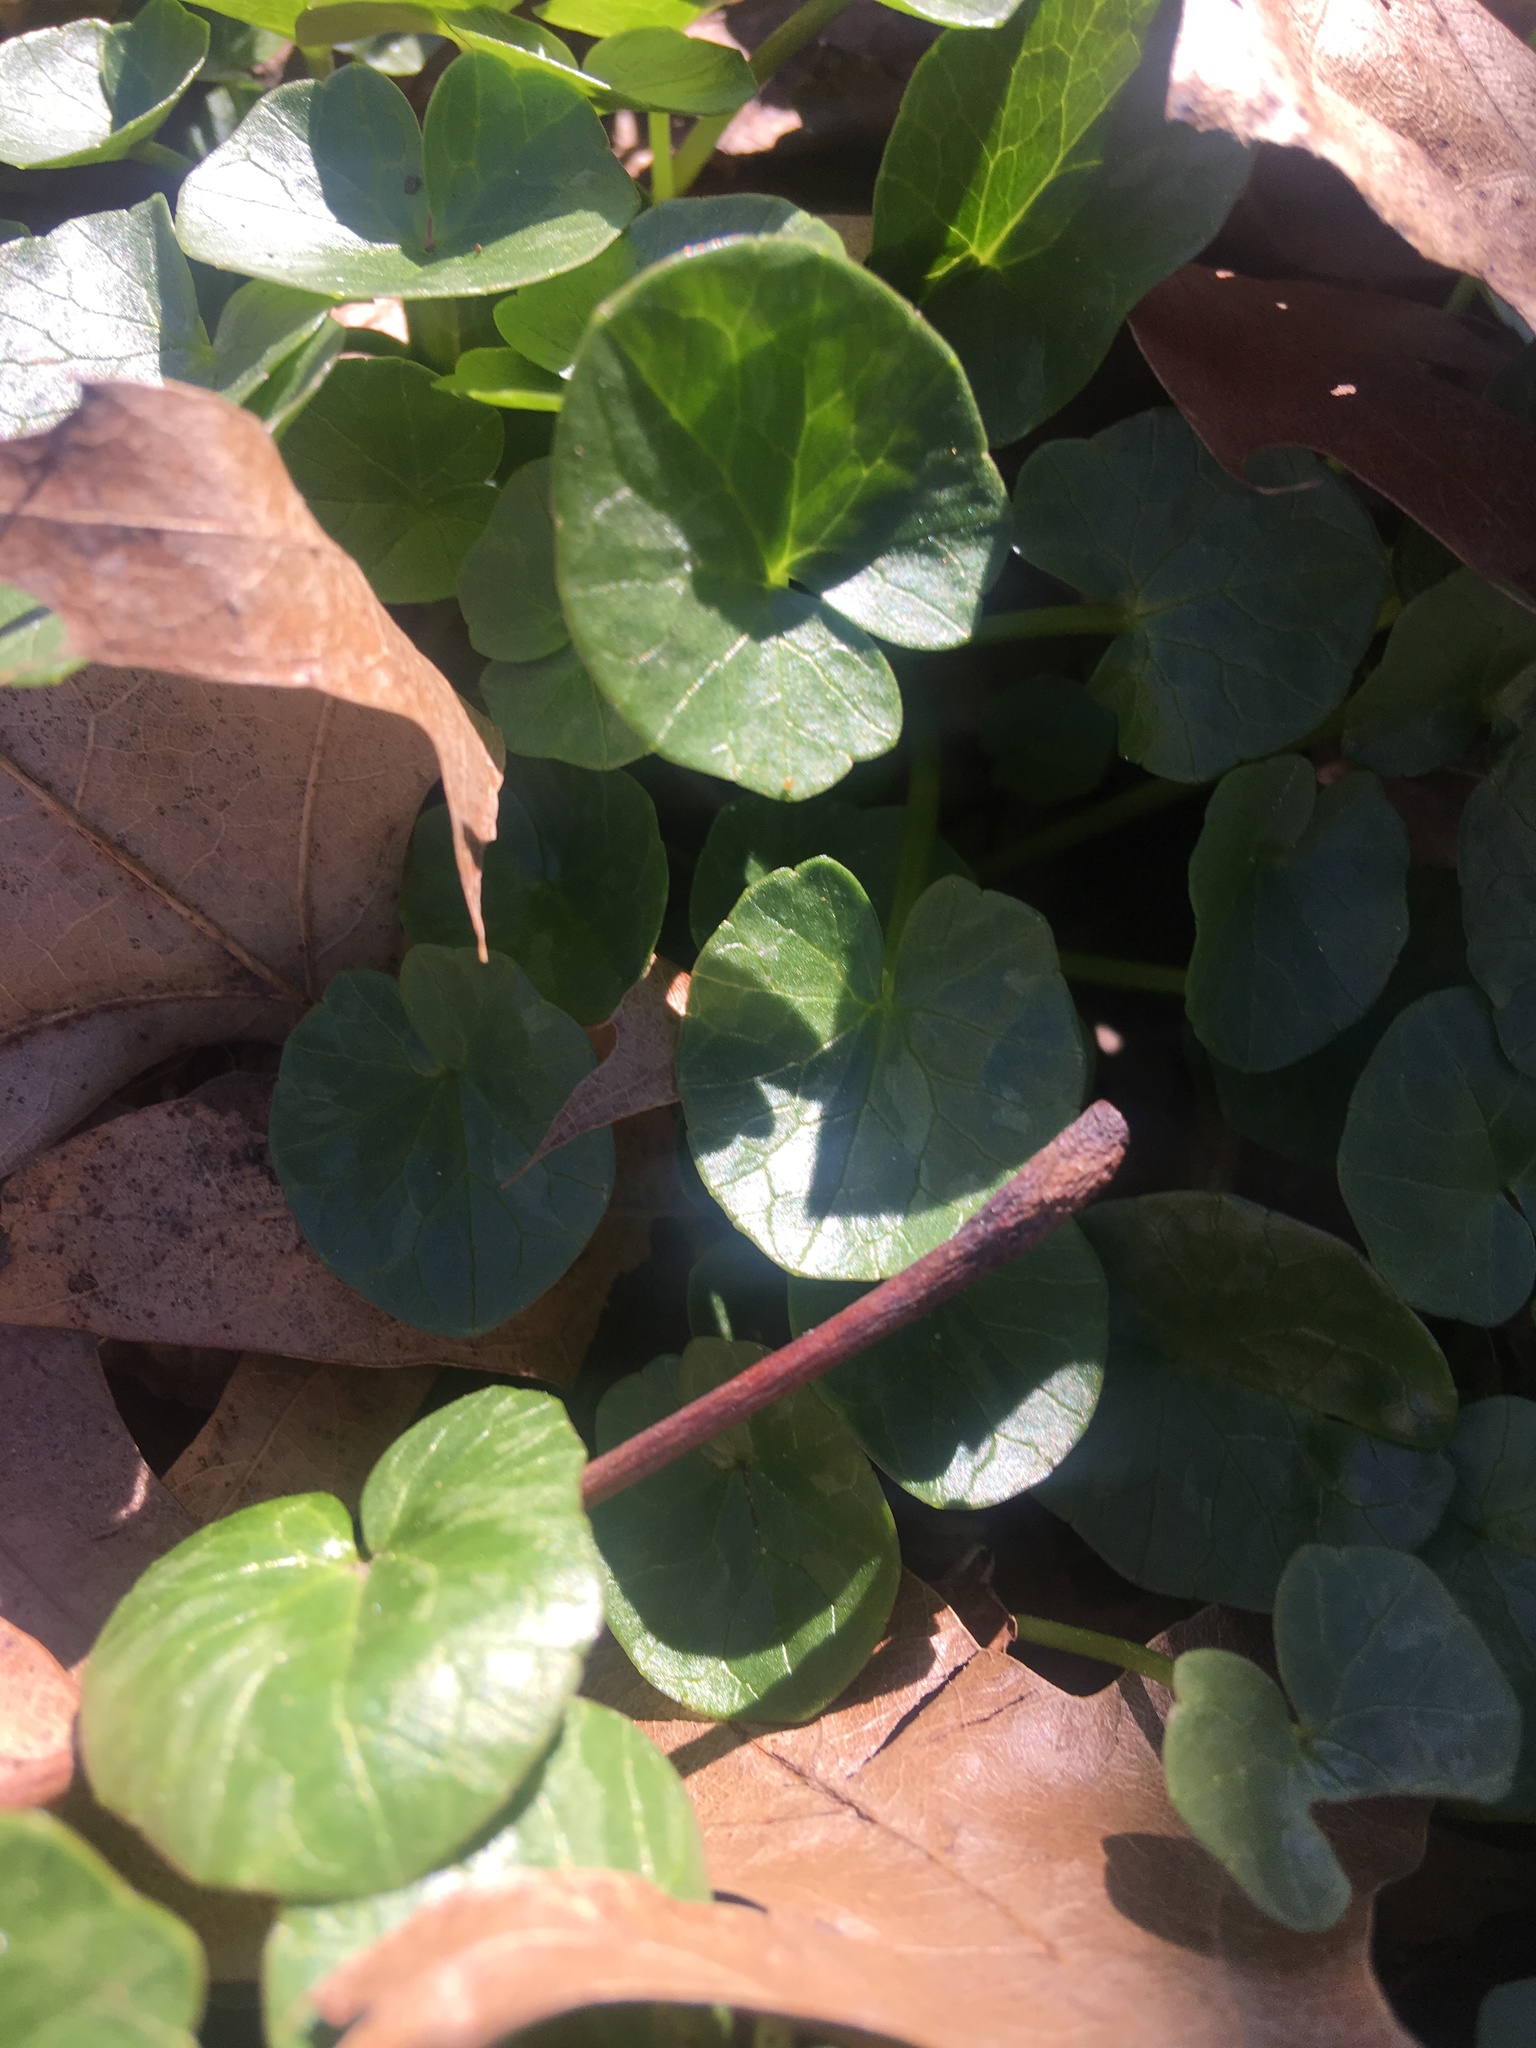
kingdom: Plantae
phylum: Tracheophyta
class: Magnoliopsida
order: Ranunculales
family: Ranunculaceae
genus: Ficaria
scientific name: Ficaria verna
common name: Lesser celandine
